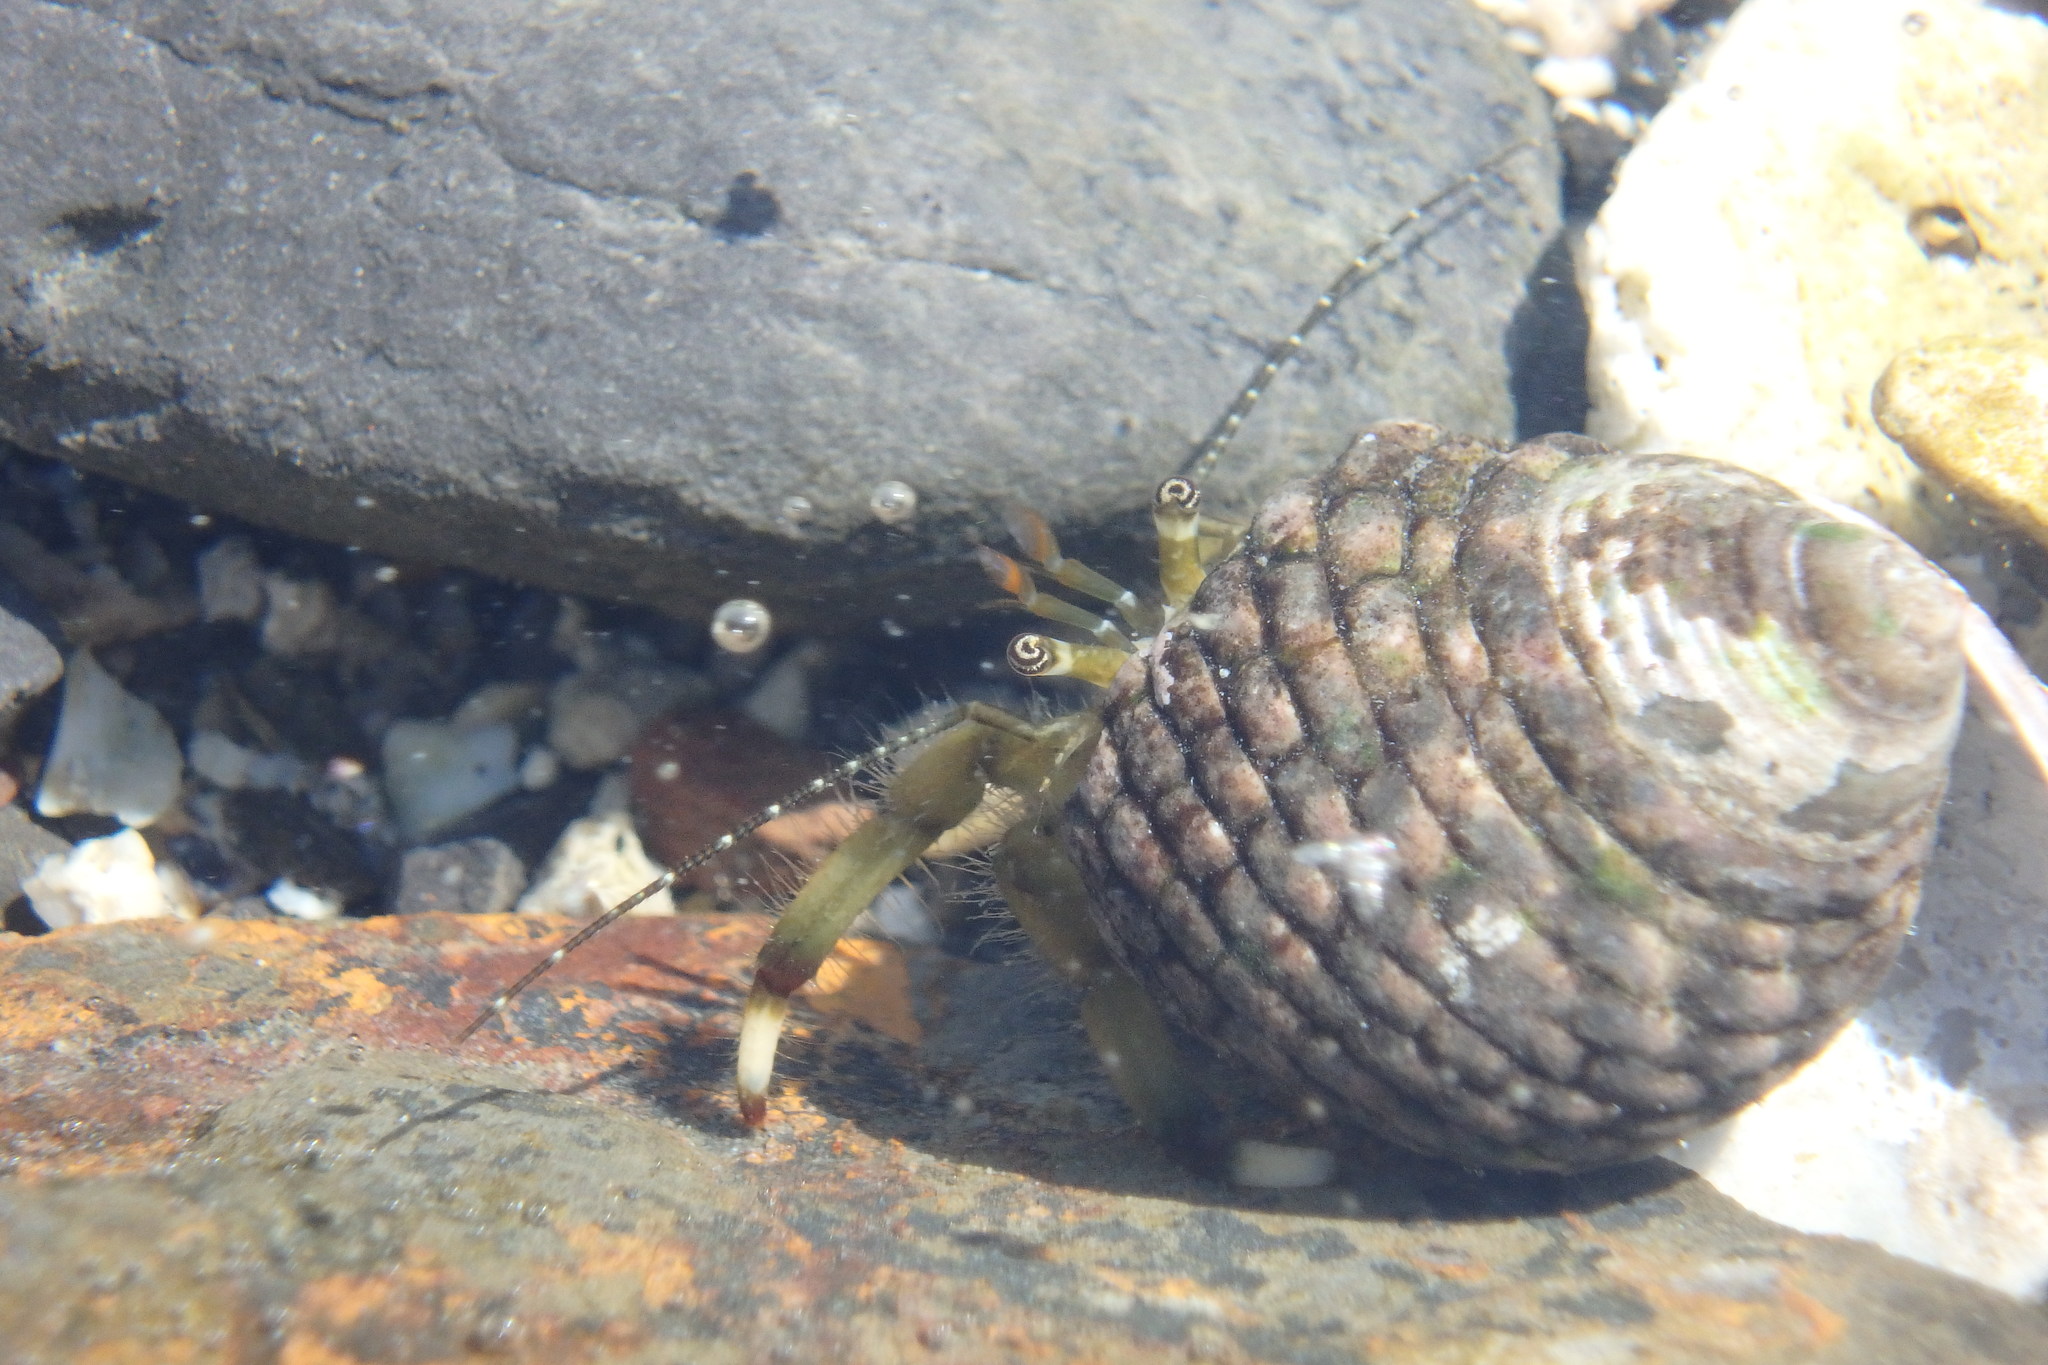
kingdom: Animalia
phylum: Arthropoda
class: Malacostraca
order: Decapoda
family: Paguridae
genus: Pagurus
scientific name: Pagurus filholi
